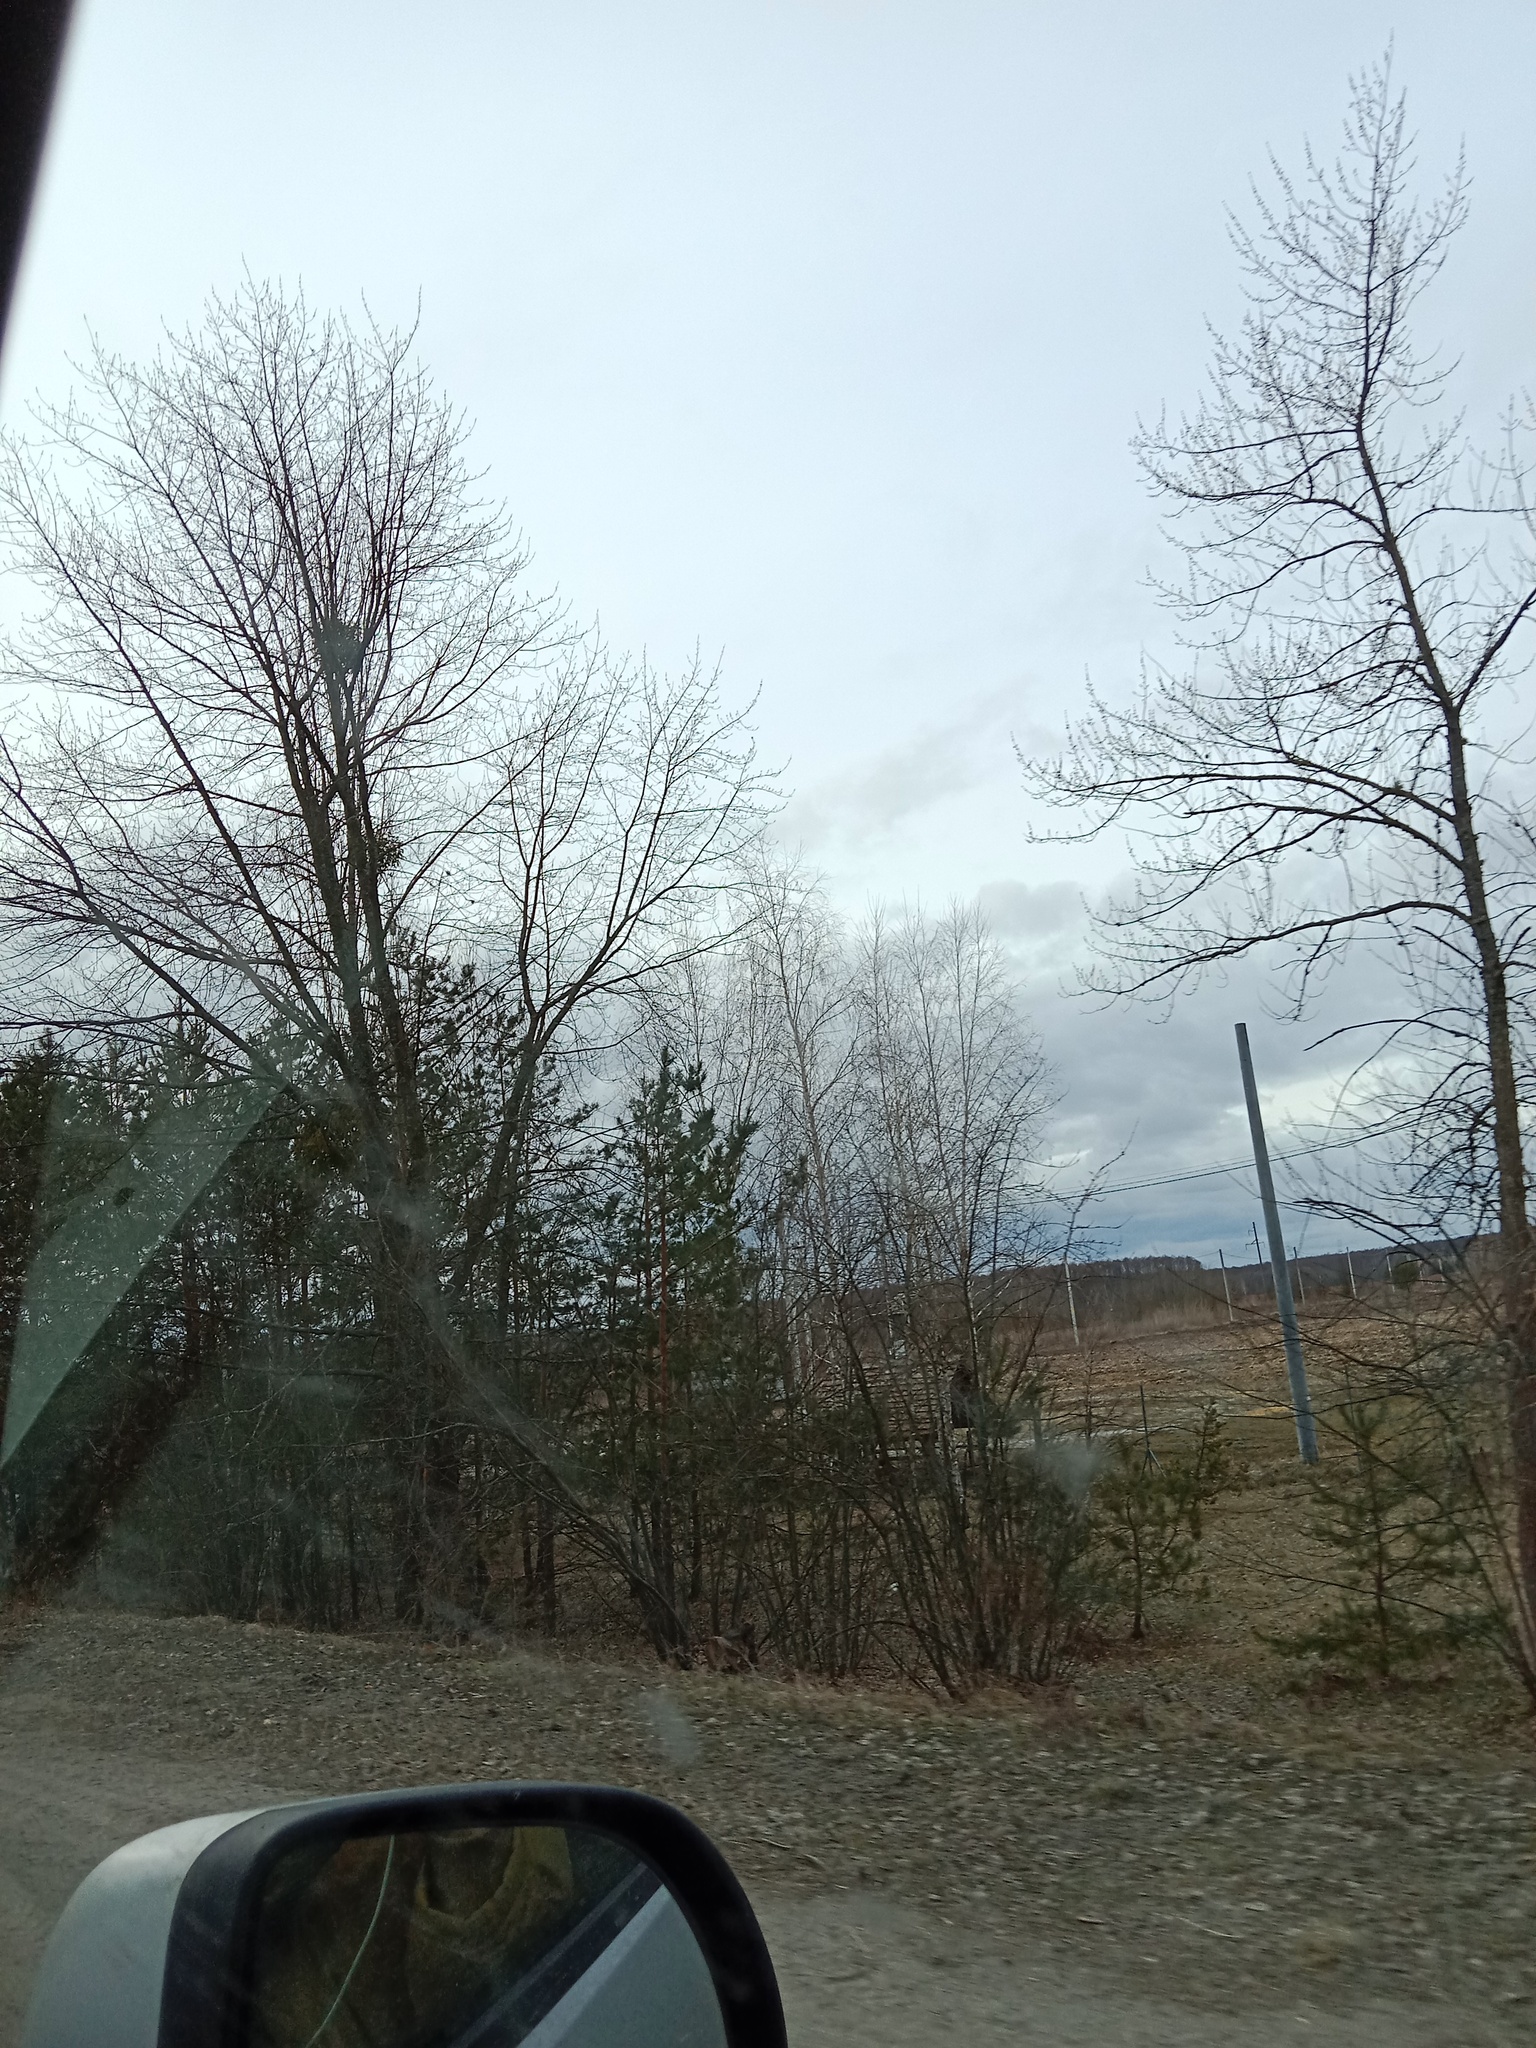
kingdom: Plantae
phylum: Tracheophyta
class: Magnoliopsida
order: Santalales
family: Viscaceae
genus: Viscum
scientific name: Viscum album
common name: Mistletoe
